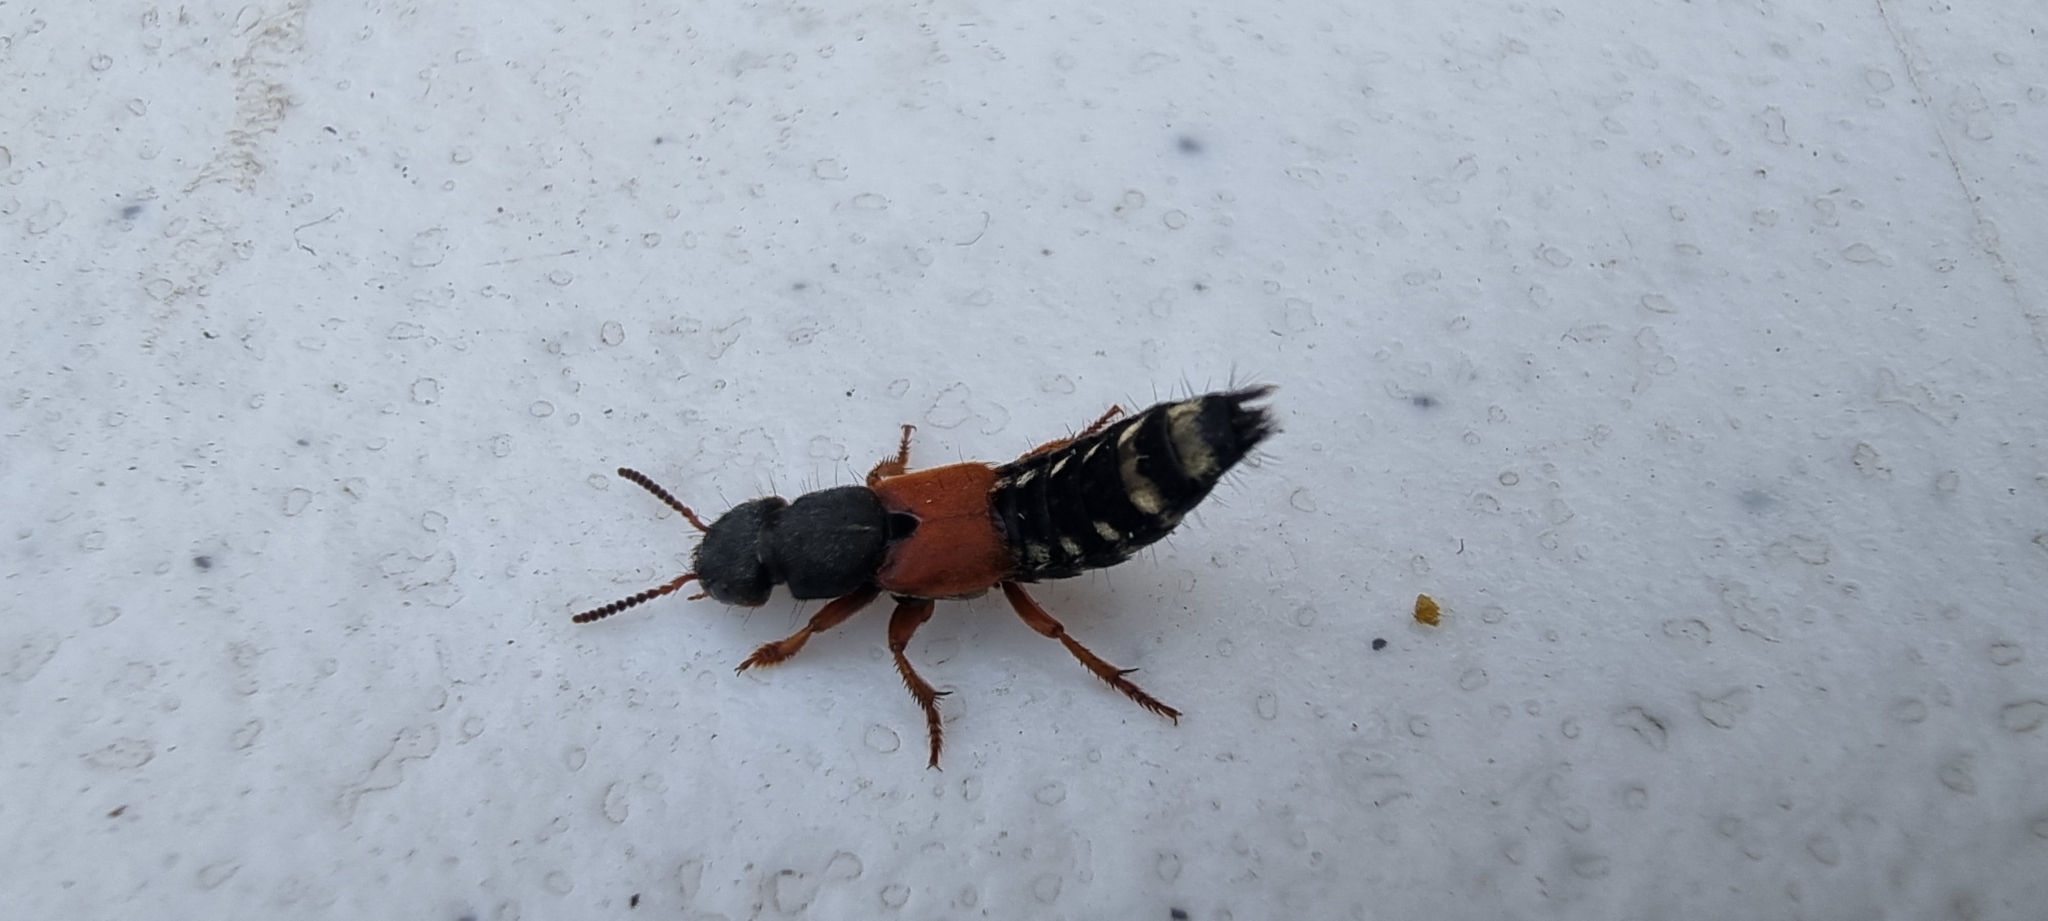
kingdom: Animalia
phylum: Arthropoda
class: Insecta
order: Coleoptera
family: Staphylinidae
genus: Platydracus
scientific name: Platydracus stercorarius
